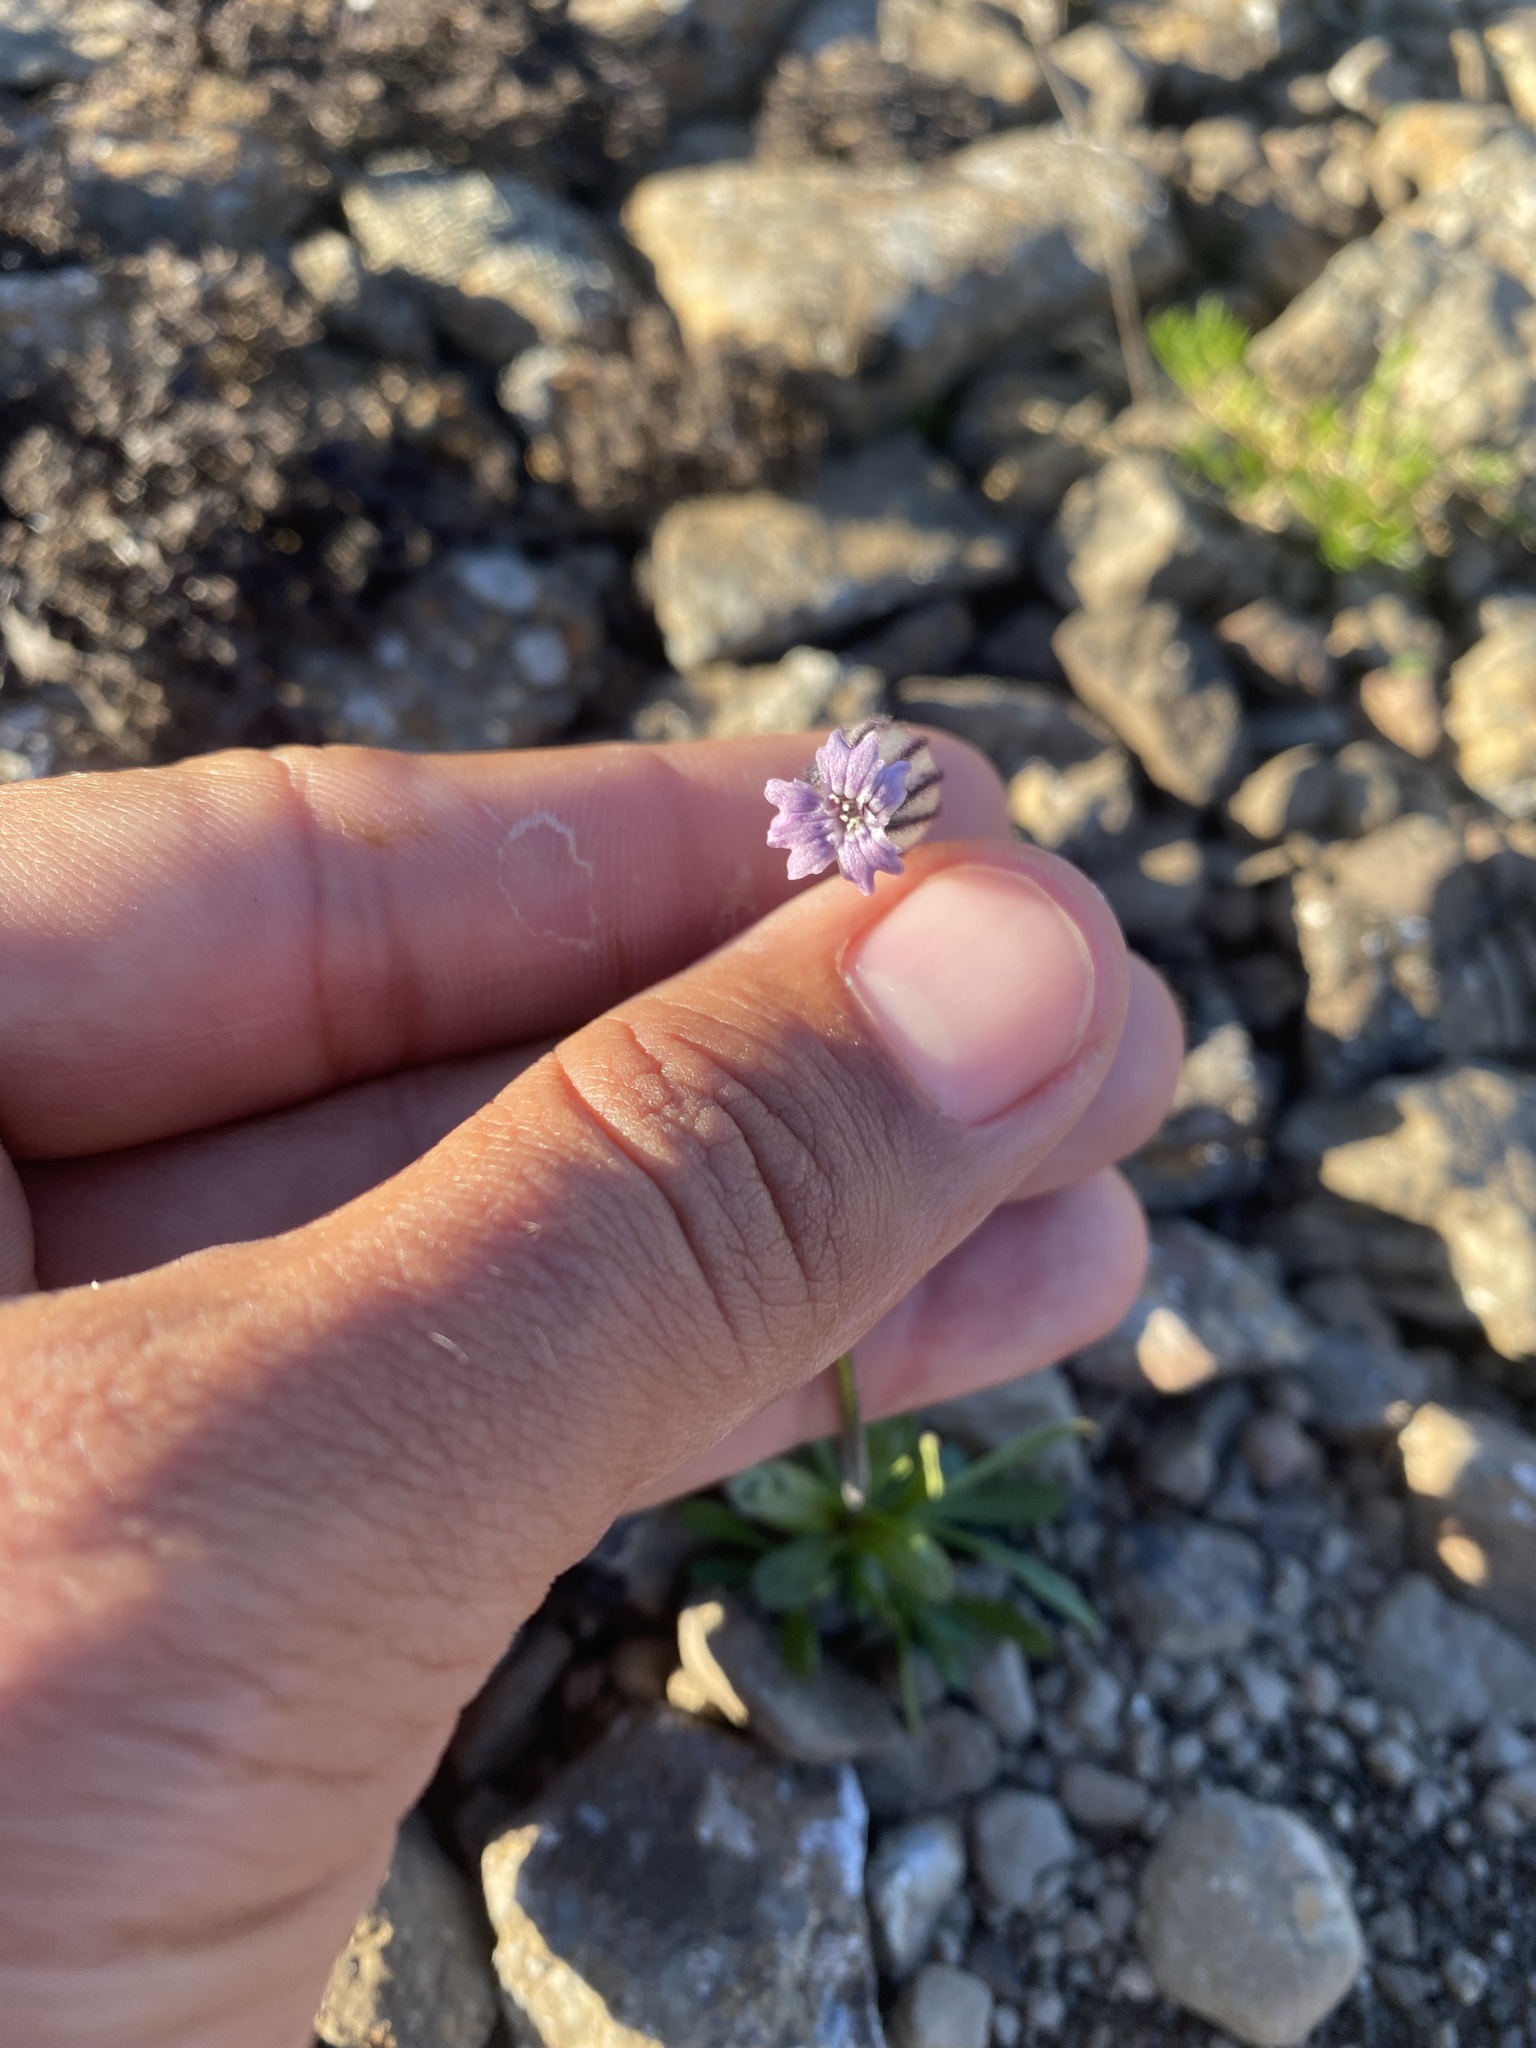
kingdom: Plantae
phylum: Tracheophyta
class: Magnoliopsida
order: Caryophyllales
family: Caryophyllaceae
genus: Silene
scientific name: Silene wahlbergella
